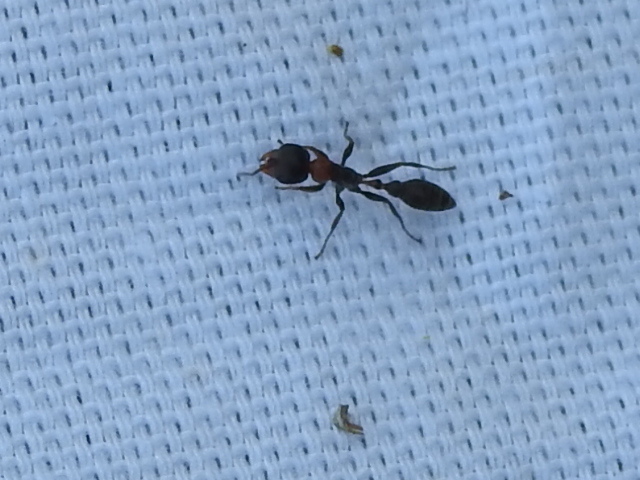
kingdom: Animalia
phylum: Arthropoda
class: Insecta
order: Hymenoptera
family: Formicidae
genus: Pseudomyrmex
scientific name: Pseudomyrmex gracilis
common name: Graceful twig ant
